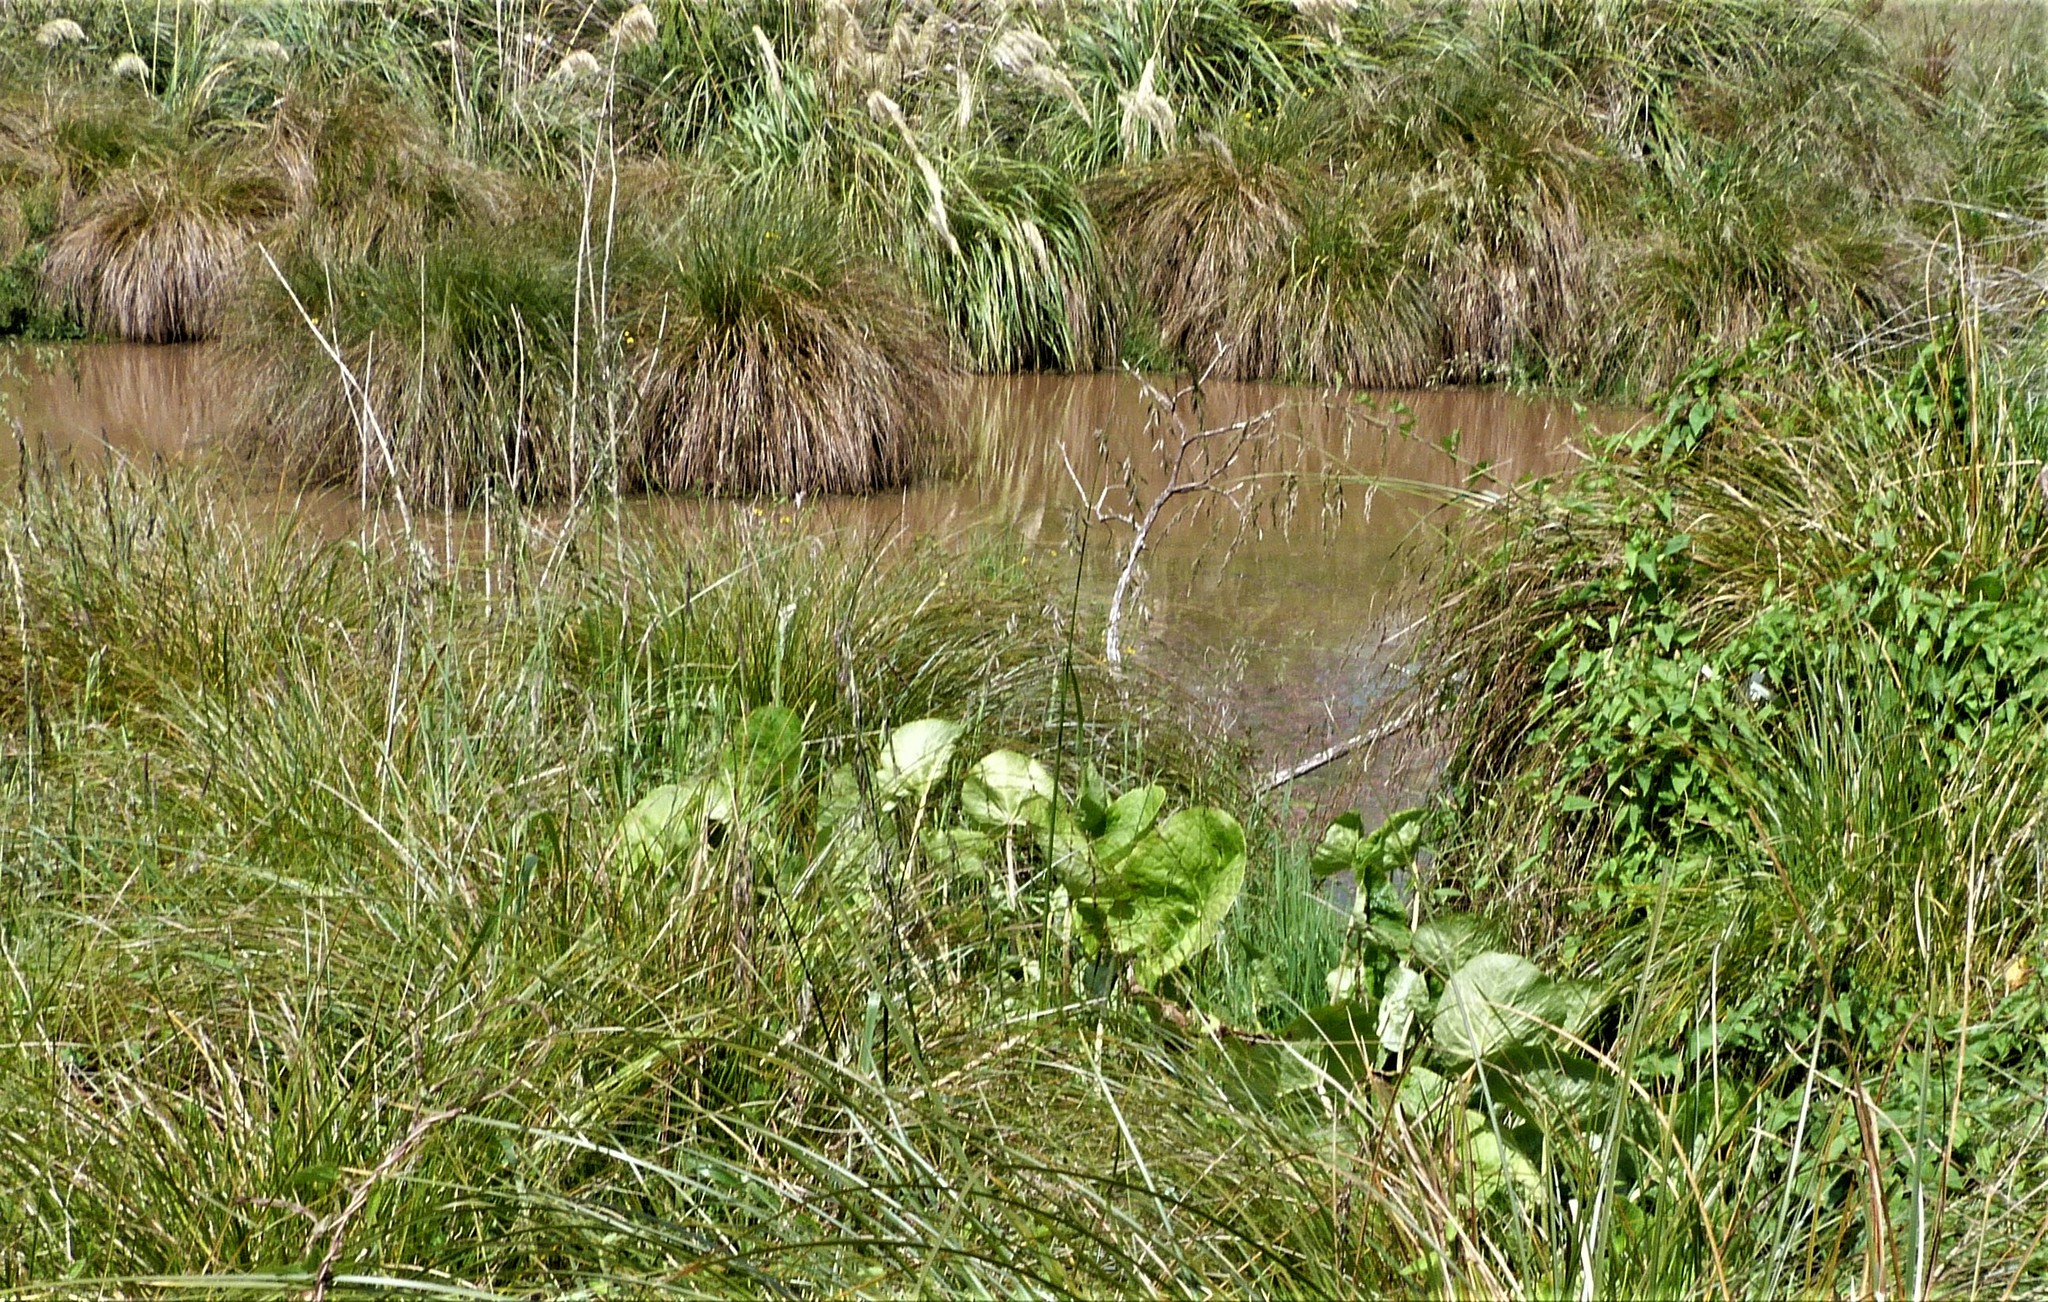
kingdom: Plantae
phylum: Tracheophyta
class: Magnoliopsida
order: Asterales
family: Asteraceae
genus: Petasites
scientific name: Petasites pyrenaicus
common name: Winter heliotrope
